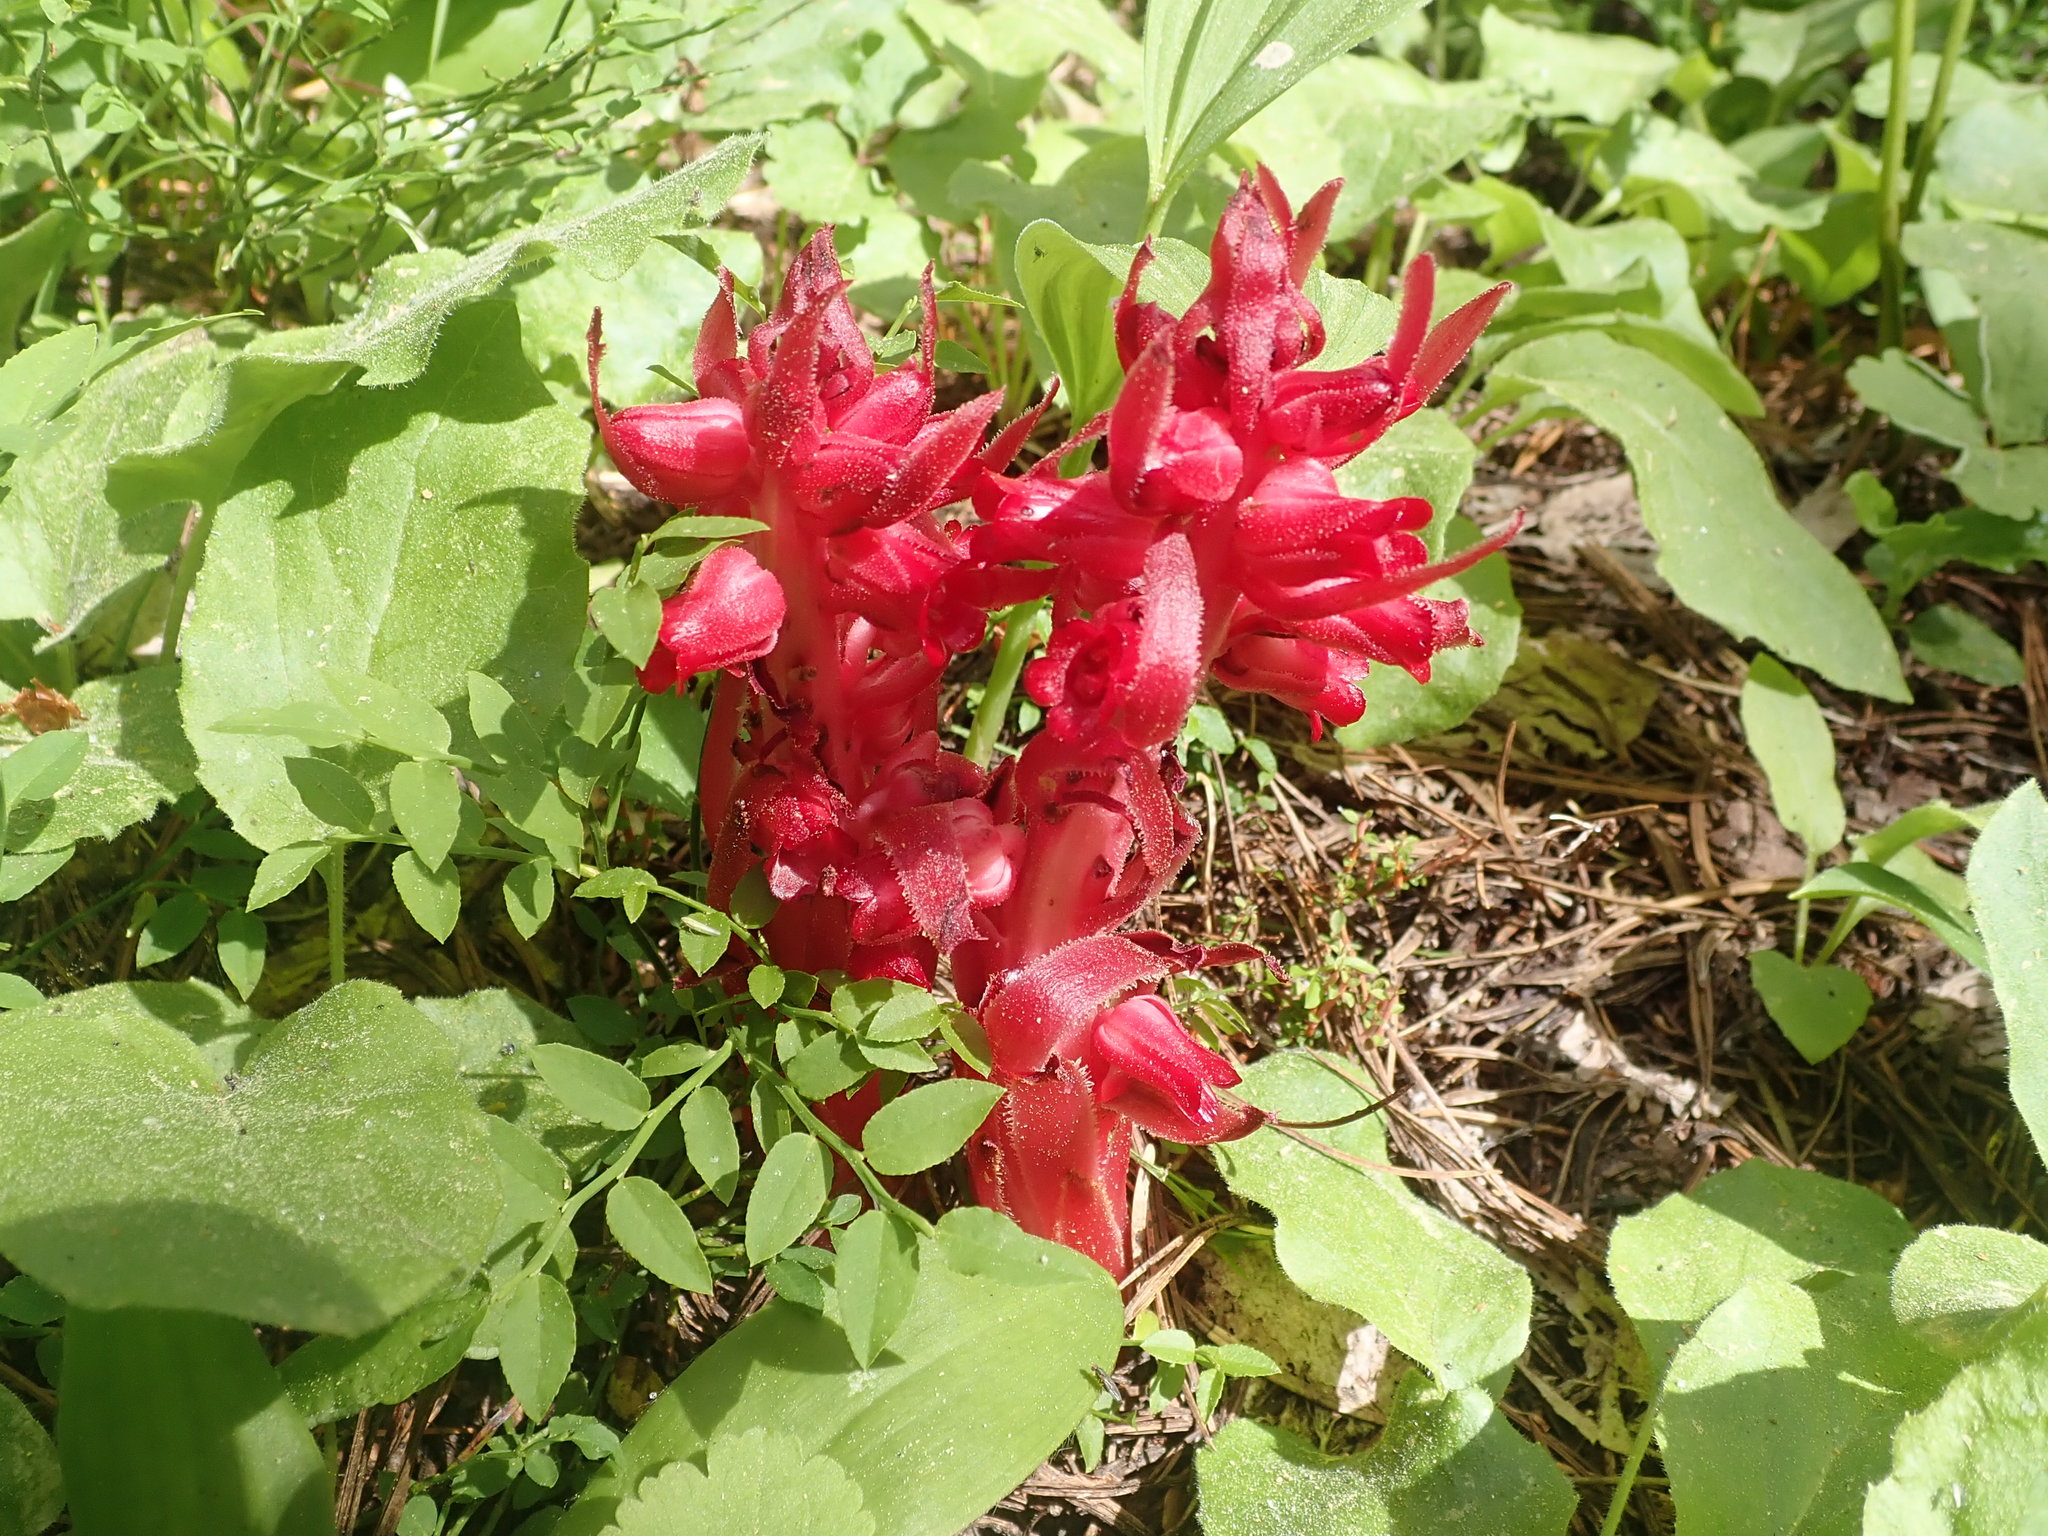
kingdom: Plantae
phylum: Tracheophyta
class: Magnoliopsida
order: Ericales
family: Ericaceae
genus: Sarcodes
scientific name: Sarcodes sanguinea
